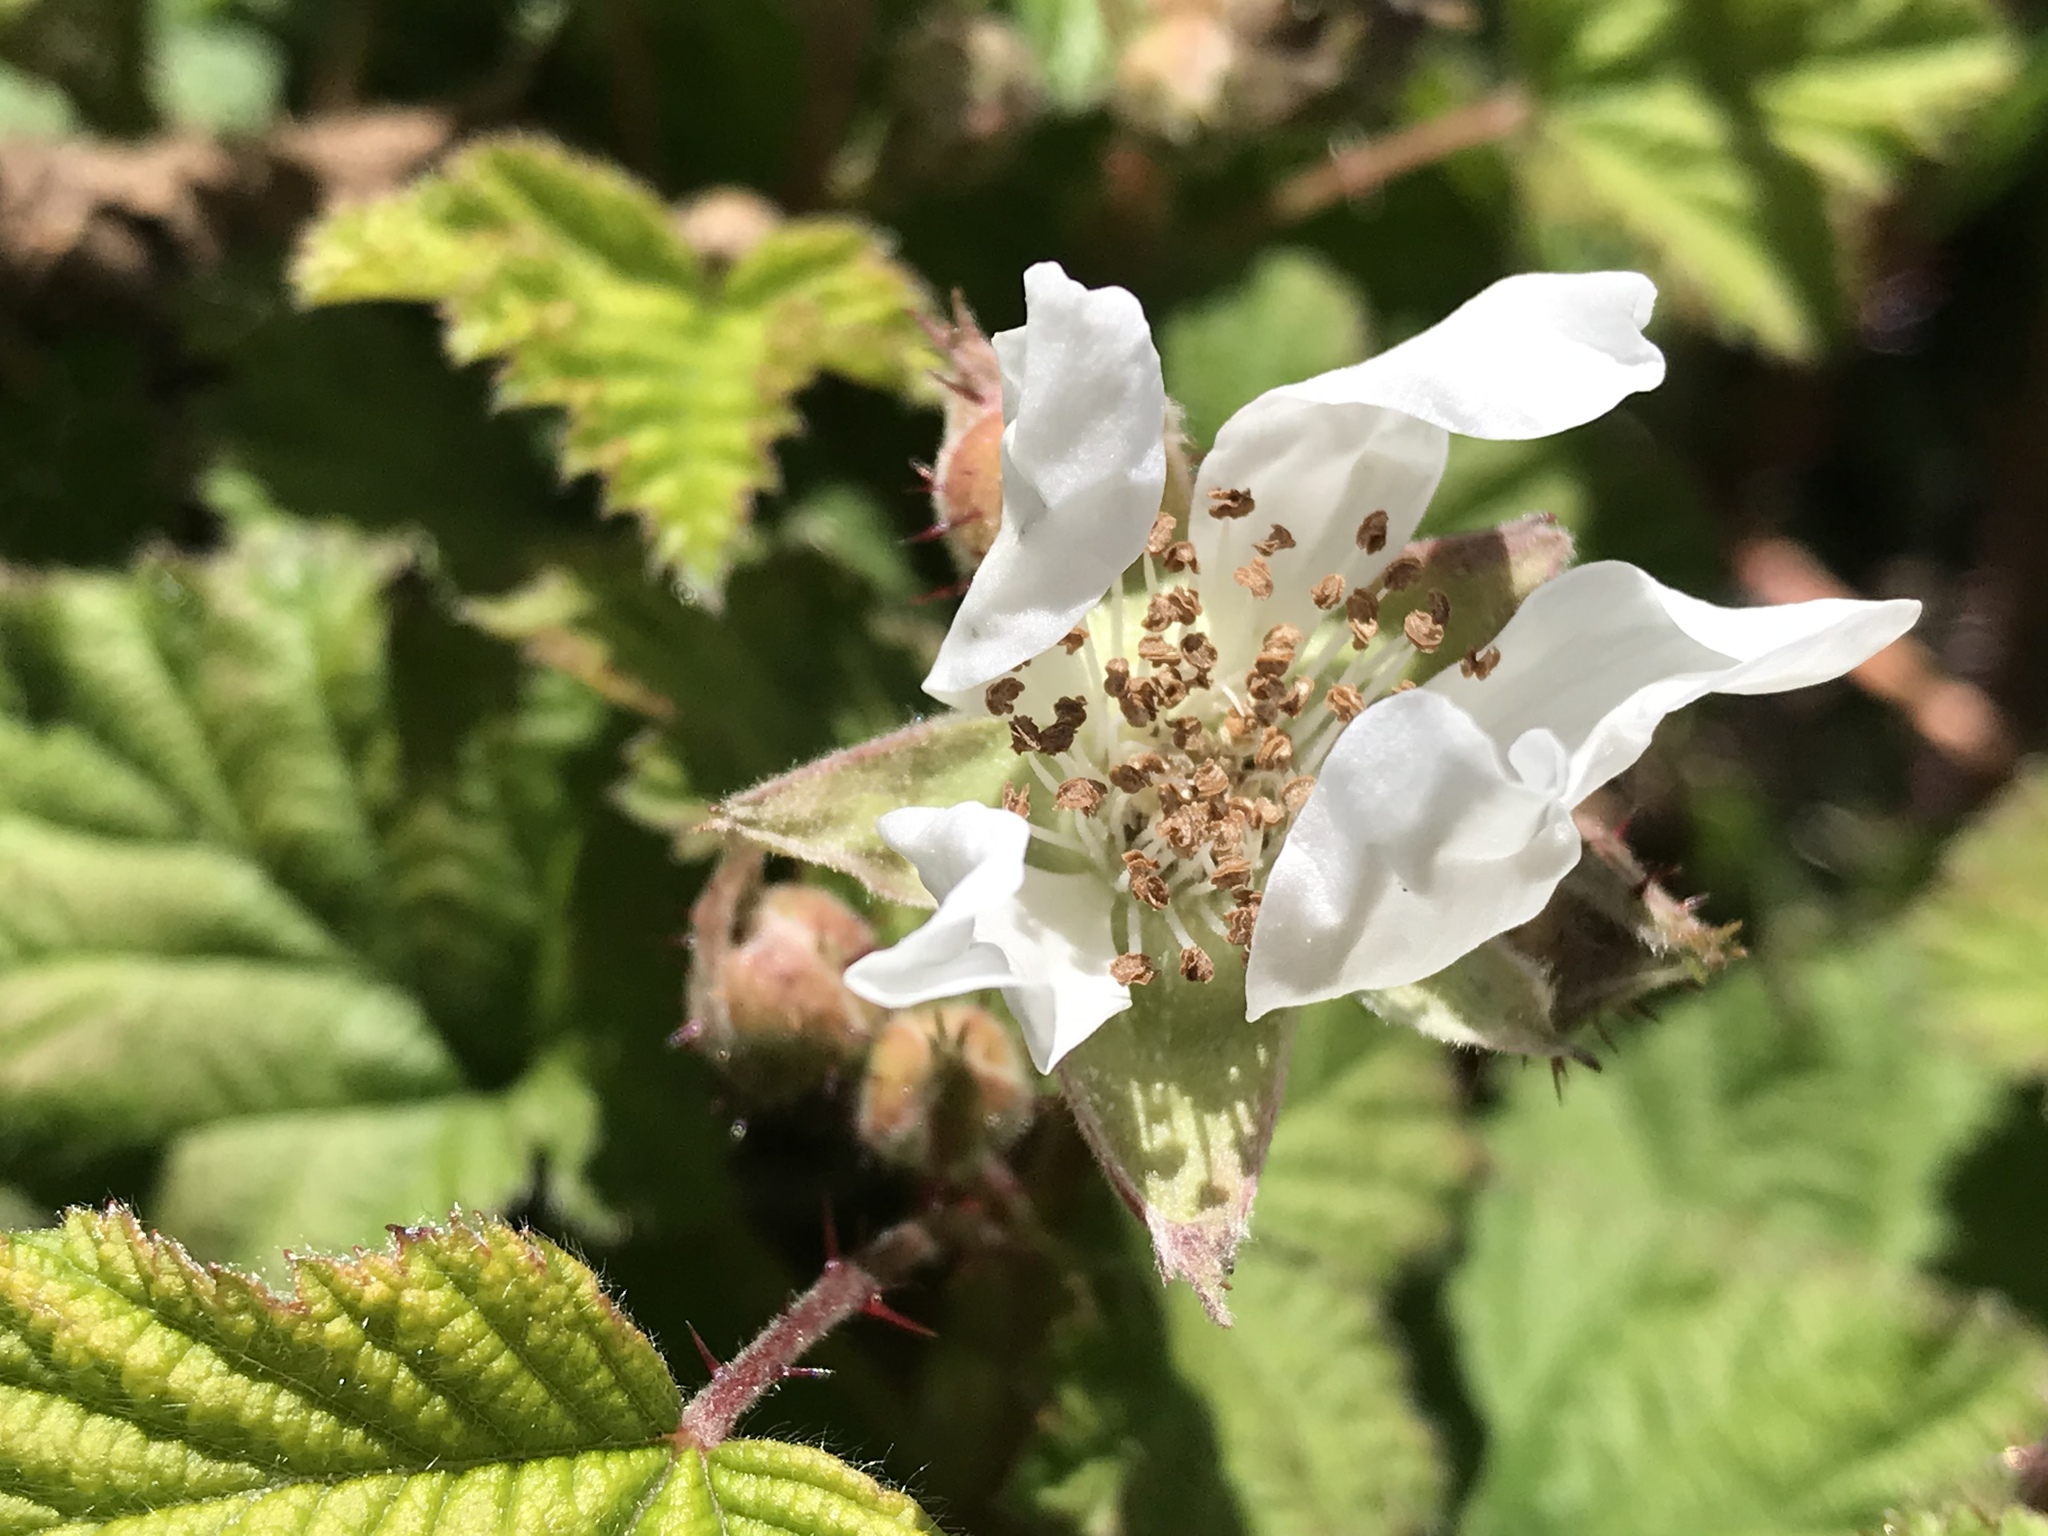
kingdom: Plantae
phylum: Tracheophyta
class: Magnoliopsida
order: Rosales
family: Rosaceae
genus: Rubus
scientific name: Rubus ursinus
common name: Pacific blackberry
